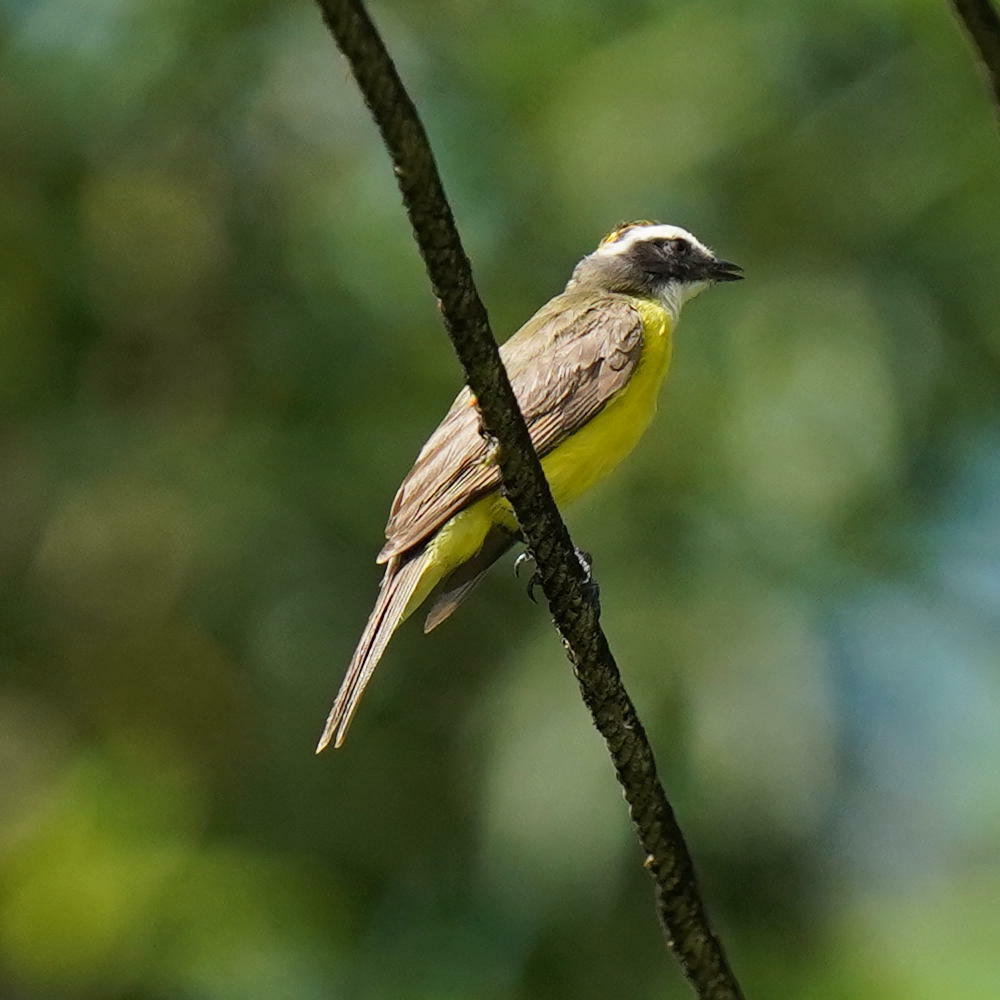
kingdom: Animalia
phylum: Chordata
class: Aves
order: Passeriformes
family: Tyrannidae
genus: Myiozetetes
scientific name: Myiozetetes cayanensis
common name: Rusty-margined flycatcher
